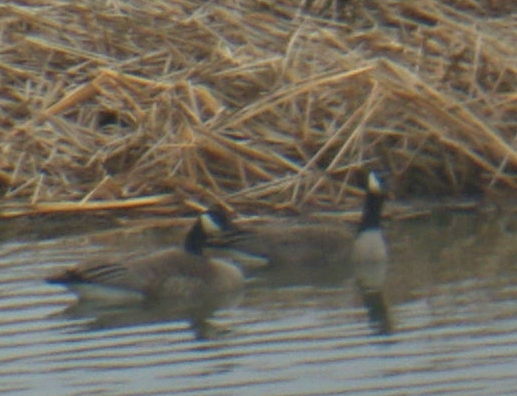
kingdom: Animalia
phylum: Chordata
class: Aves
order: Anseriformes
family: Anatidae
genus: Branta
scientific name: Branta canadensis
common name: Canada goose
